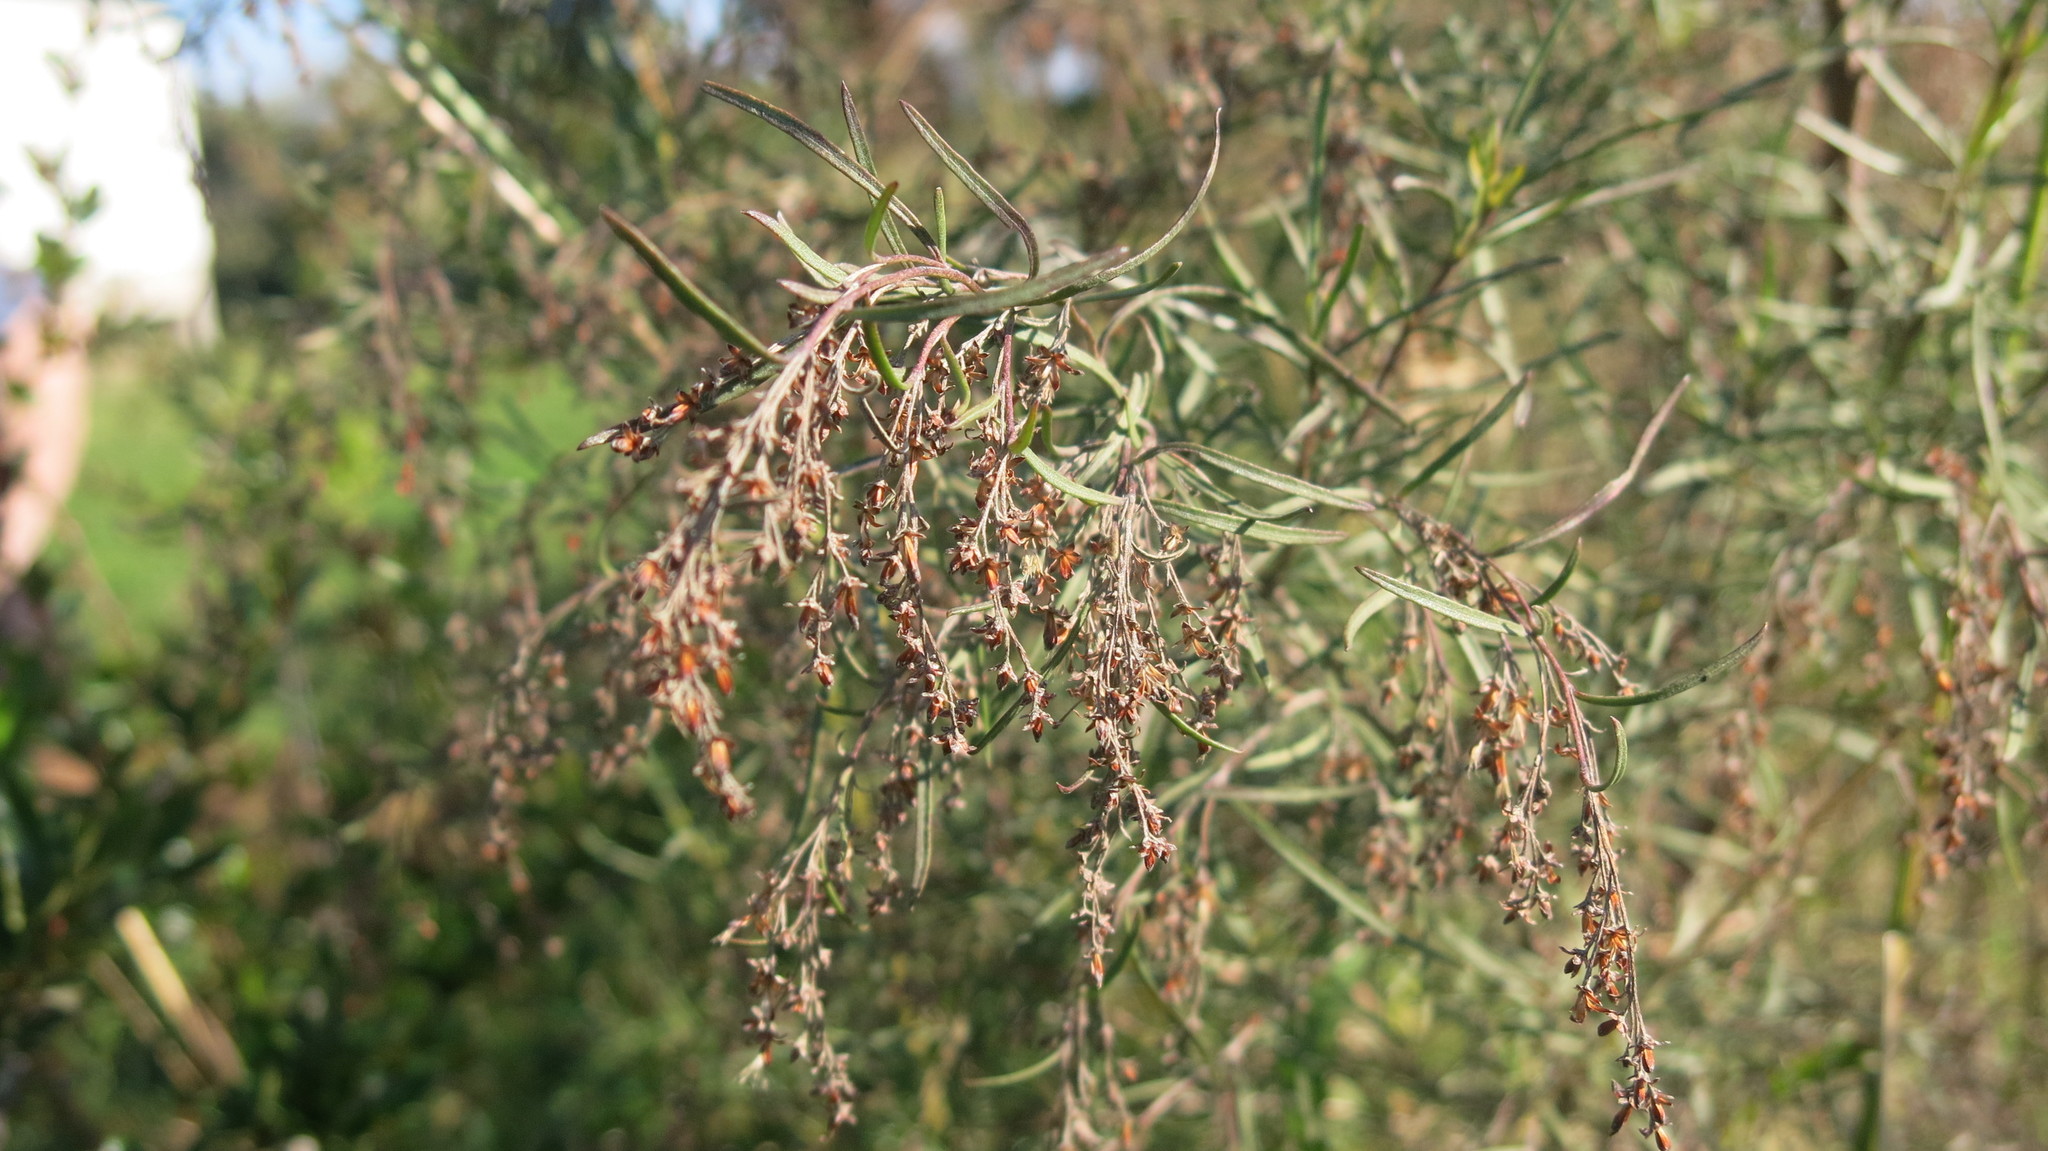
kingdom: Plantae
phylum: Tracheophyta
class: Magnoliopsida
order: Asterales
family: Asteraceae
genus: Acanthostyles
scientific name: Acanthostyles buniifolius
